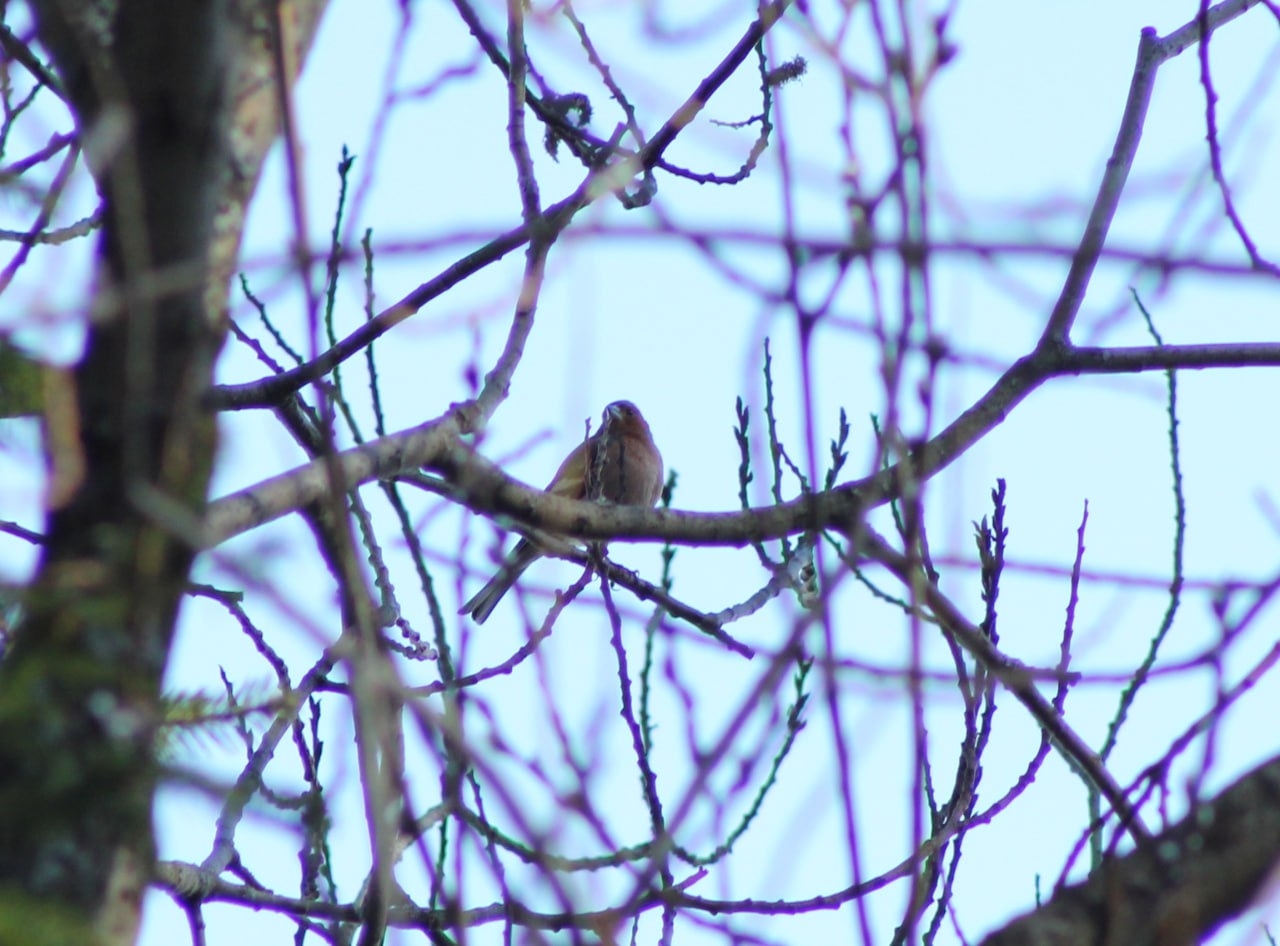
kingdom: Animalia
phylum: Chordata
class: Aves
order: Passeriformes
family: Fringillidae
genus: Fringilla
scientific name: Fringilla coelebs
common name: Common chaffinch
